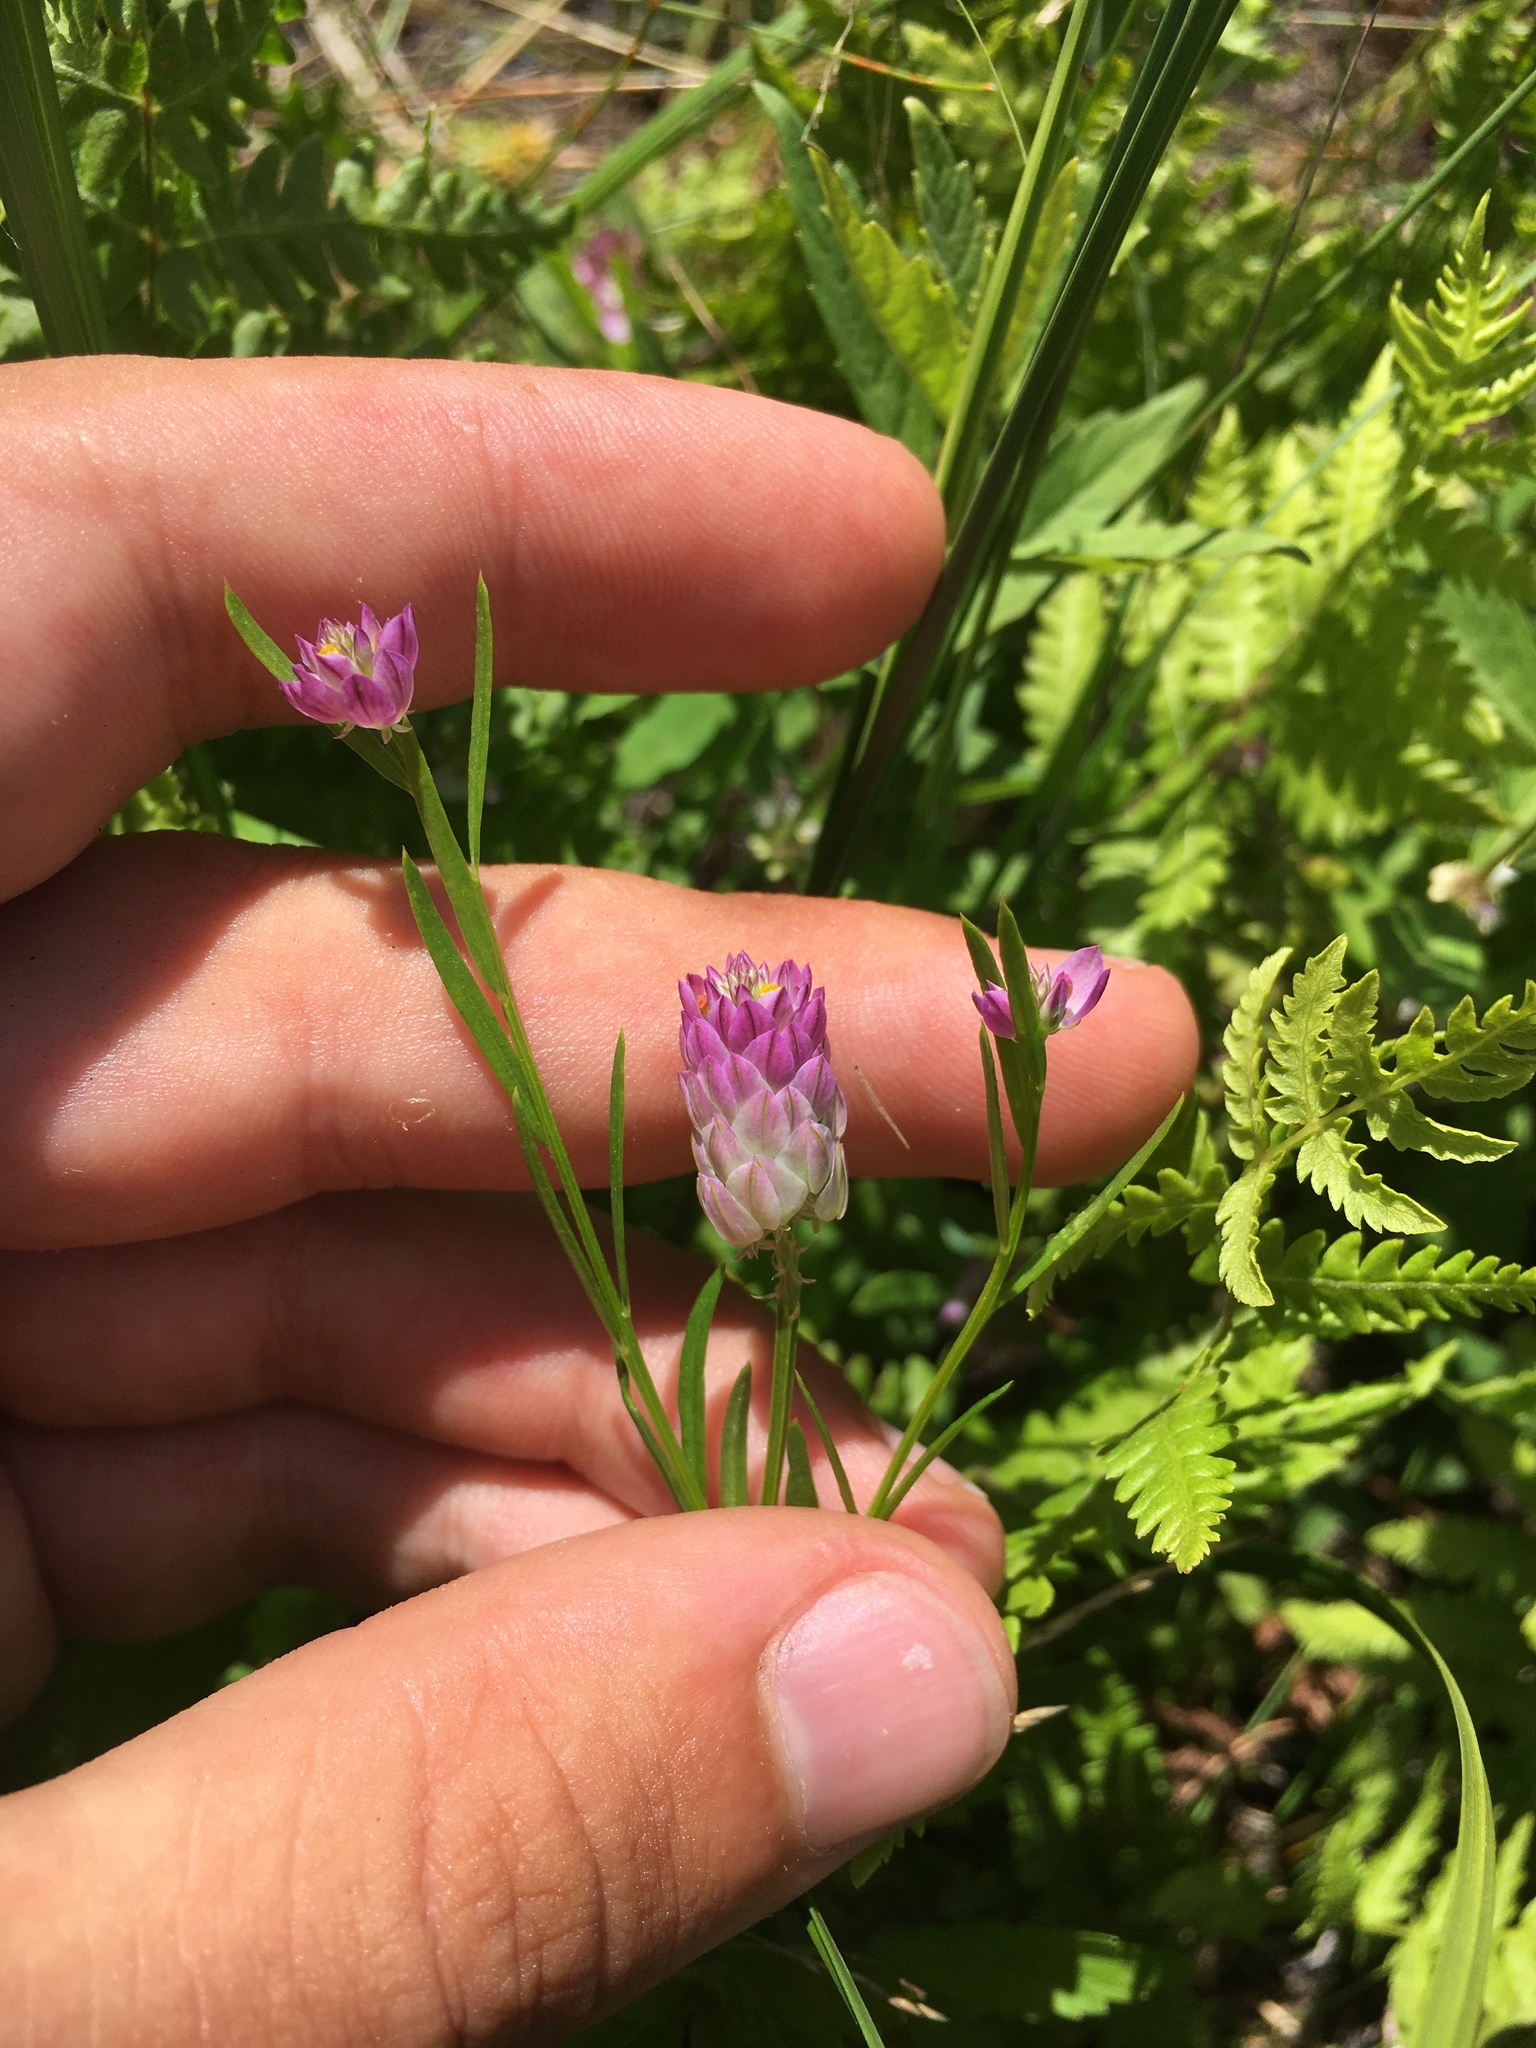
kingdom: Plantae
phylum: Tracheophyta
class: Magnoliopsida
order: Fabales
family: Polygalaceae
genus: Polygala
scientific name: Polygala sanguinea
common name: Blood milkwort
